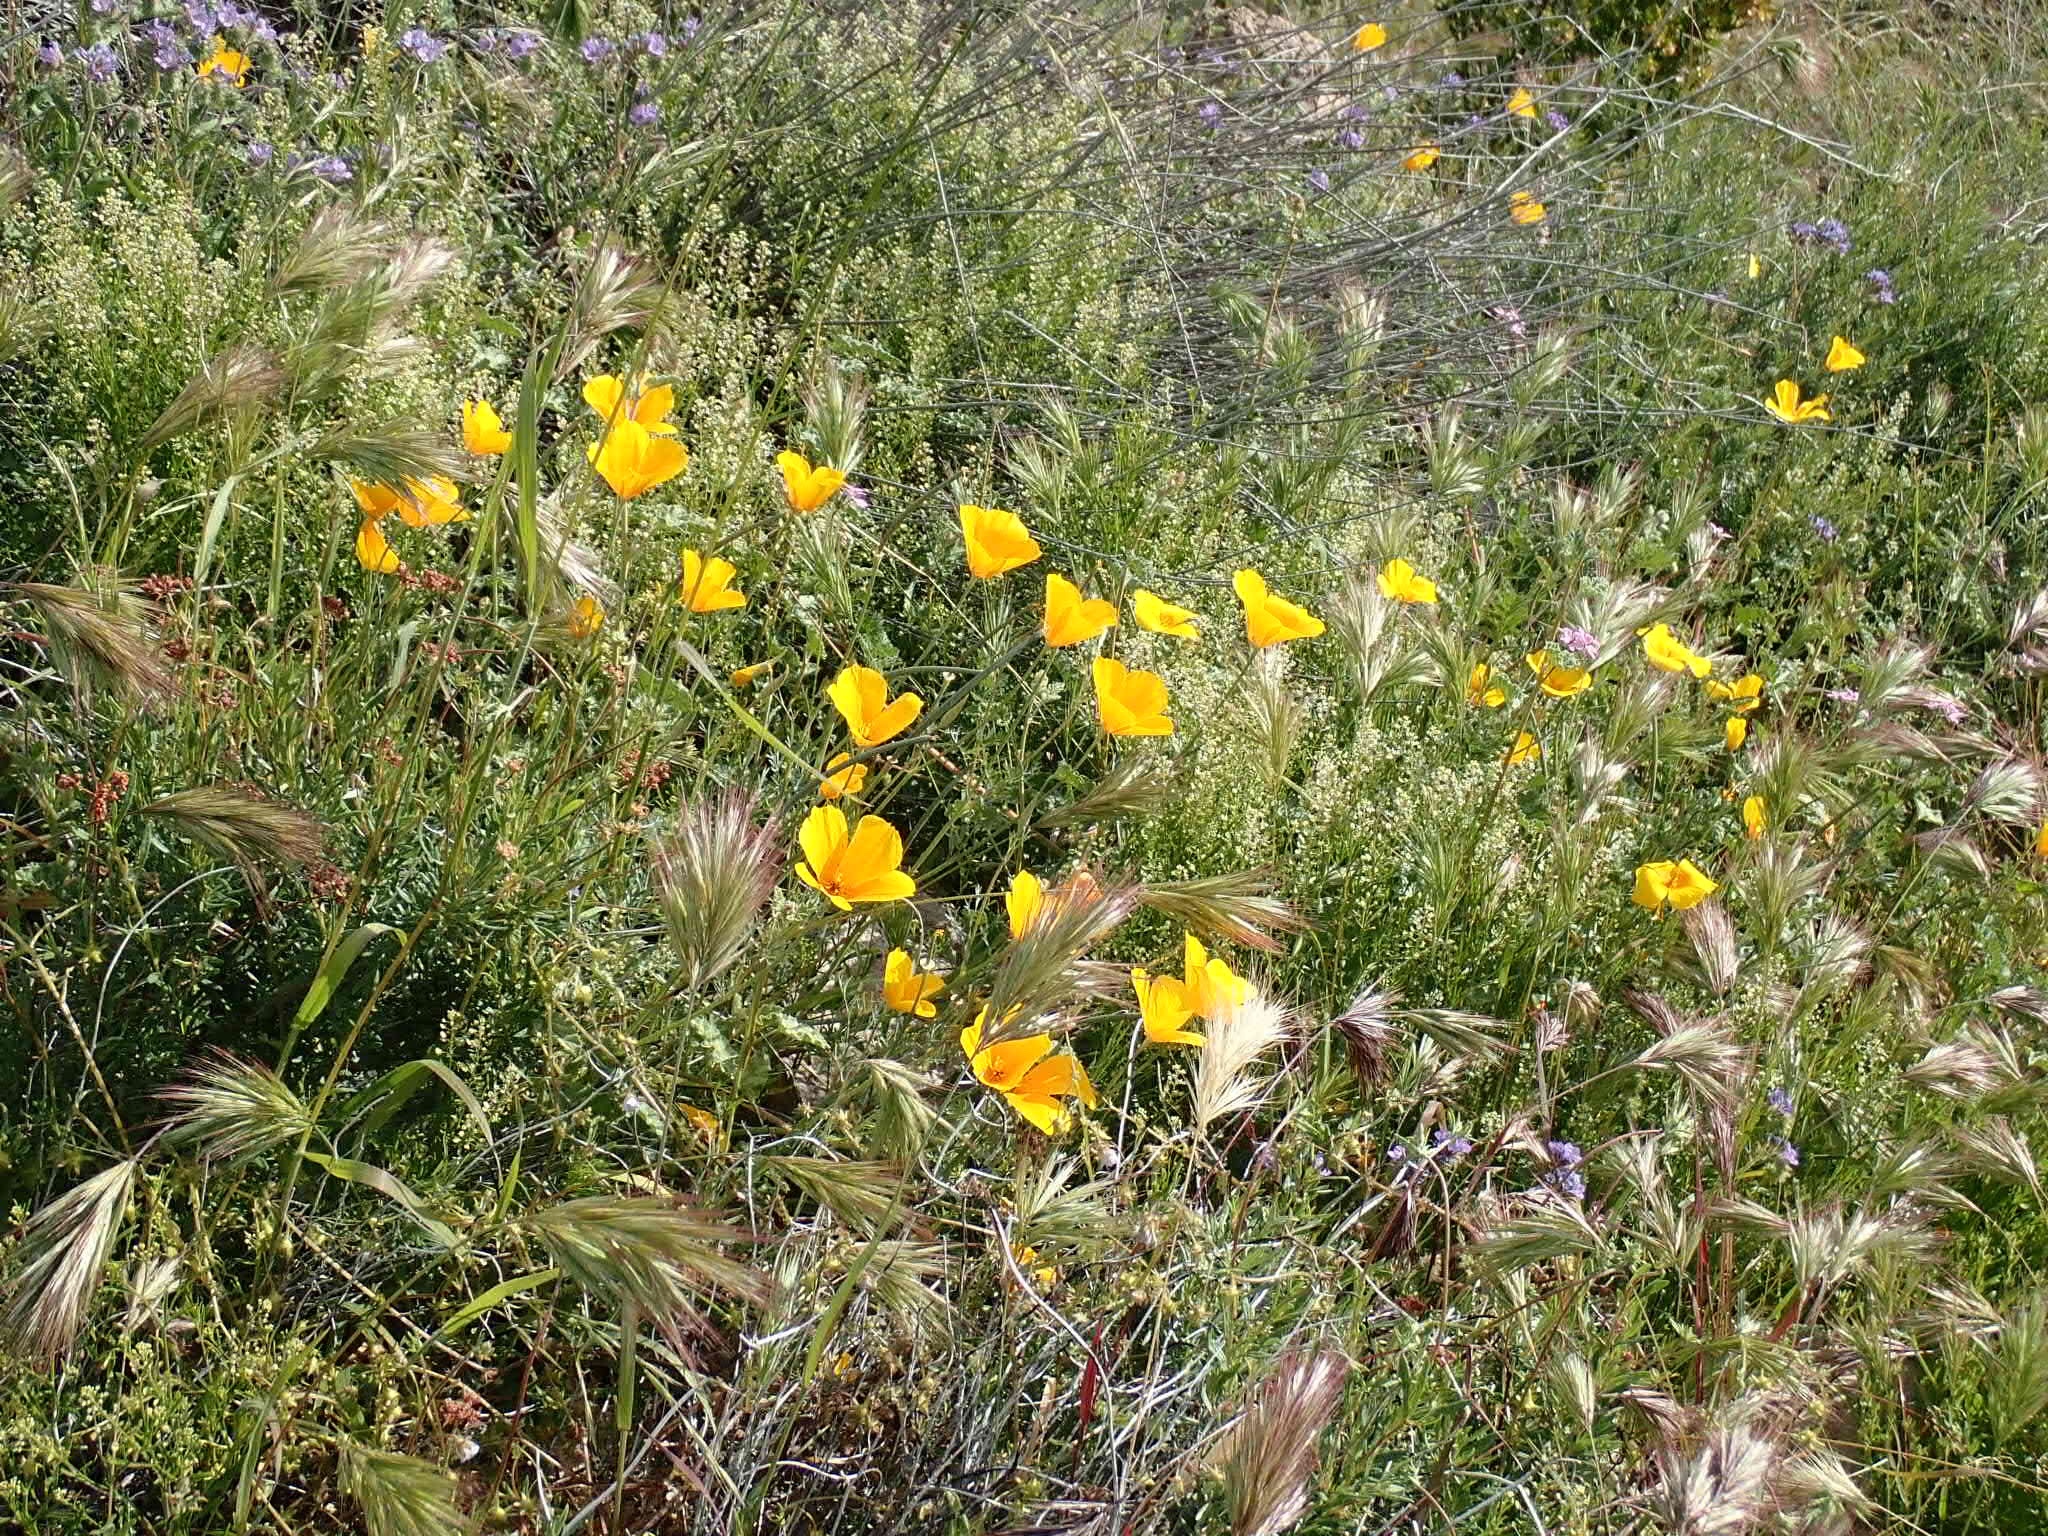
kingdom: Plantae
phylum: Tracheophyta
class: Magnoliopsida
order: Ranunculales
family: Papaveraceae
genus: Eschscholzia
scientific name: Eschscholzia californica
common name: California poppy
